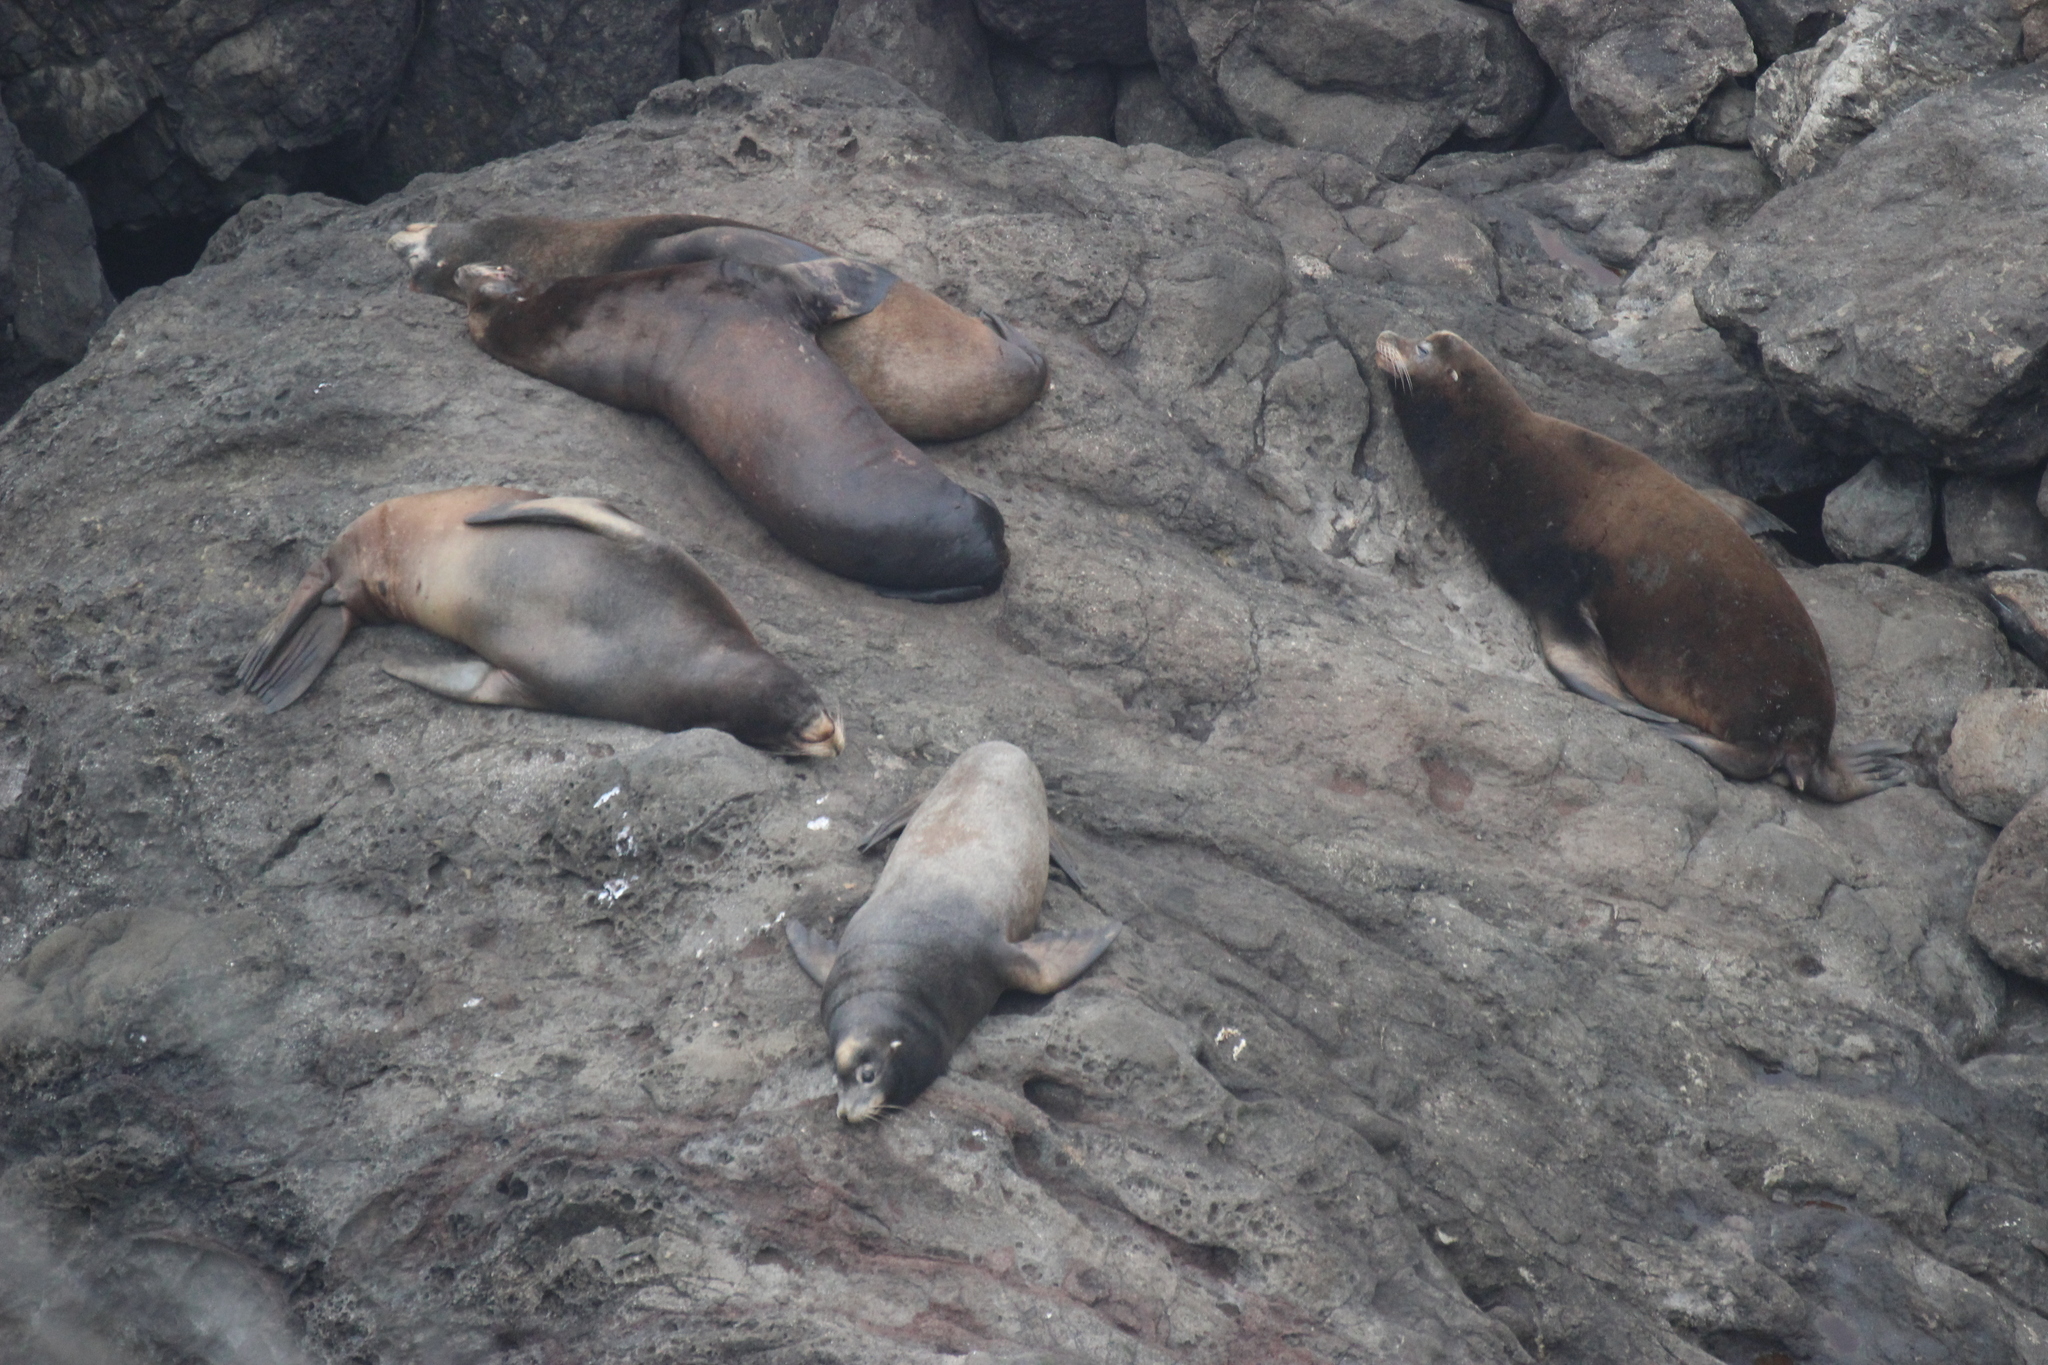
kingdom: Animalia
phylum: Chordata
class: Mammalia
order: Carnivora
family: Otariidae
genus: Zalophus
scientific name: Zalophus californianus
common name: California sea lion
